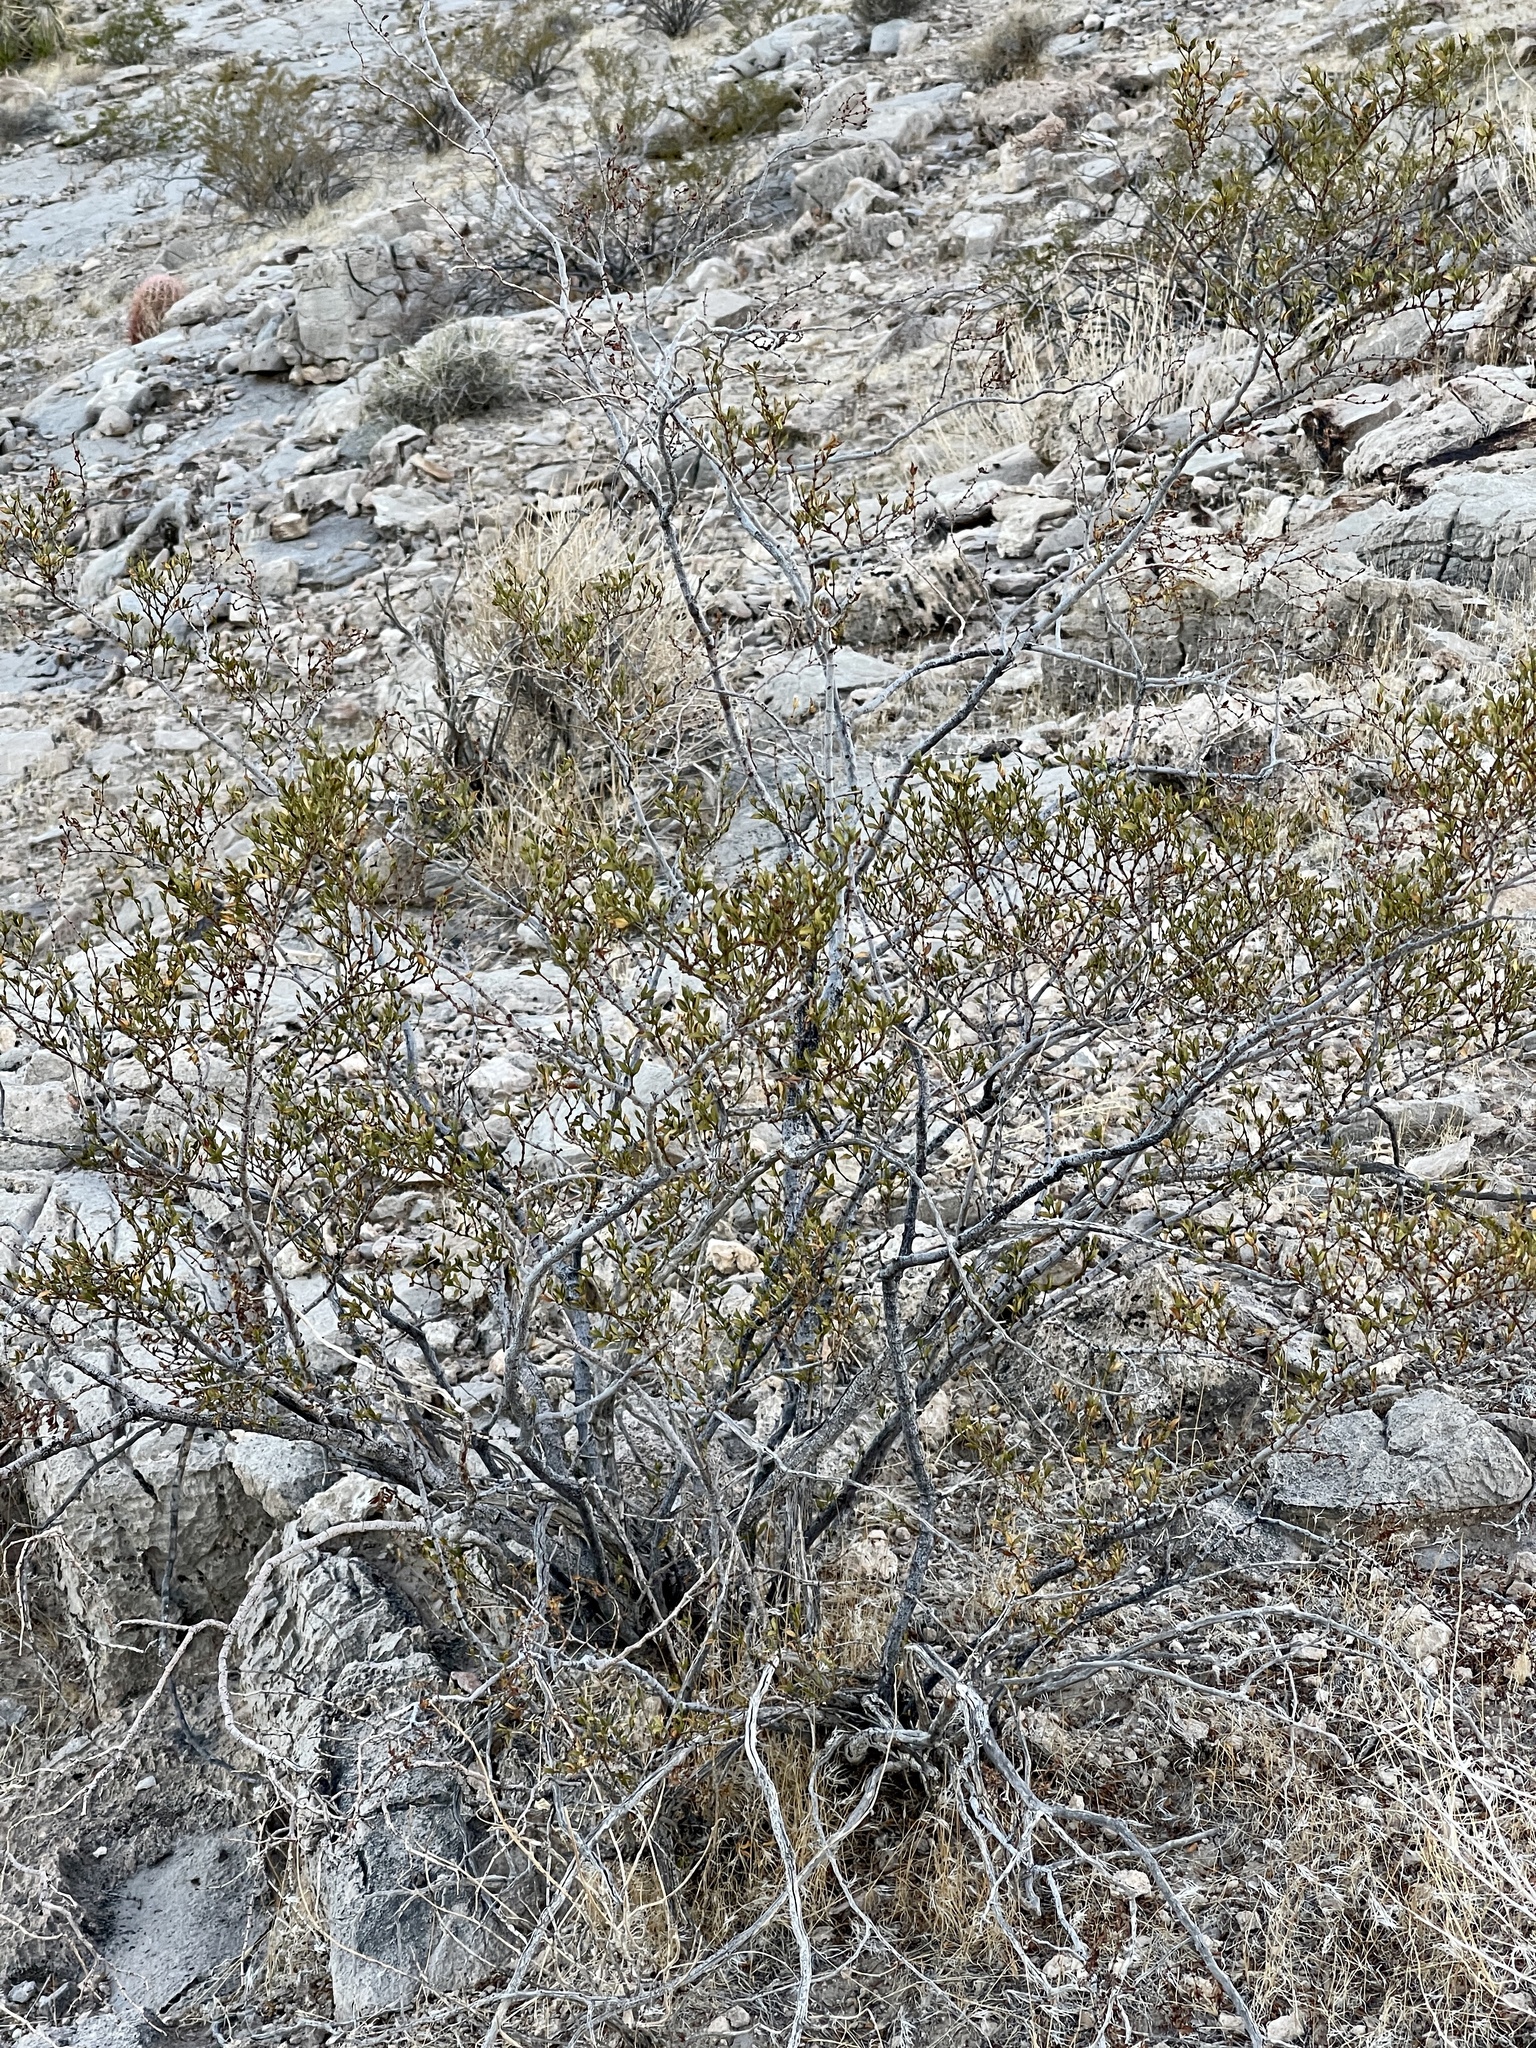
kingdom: Plantae
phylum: Tracheophyta
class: Magnoliopsida
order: Zygophyllales
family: Zygophyllaceae
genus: Larrea
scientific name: Larrea tridentata
